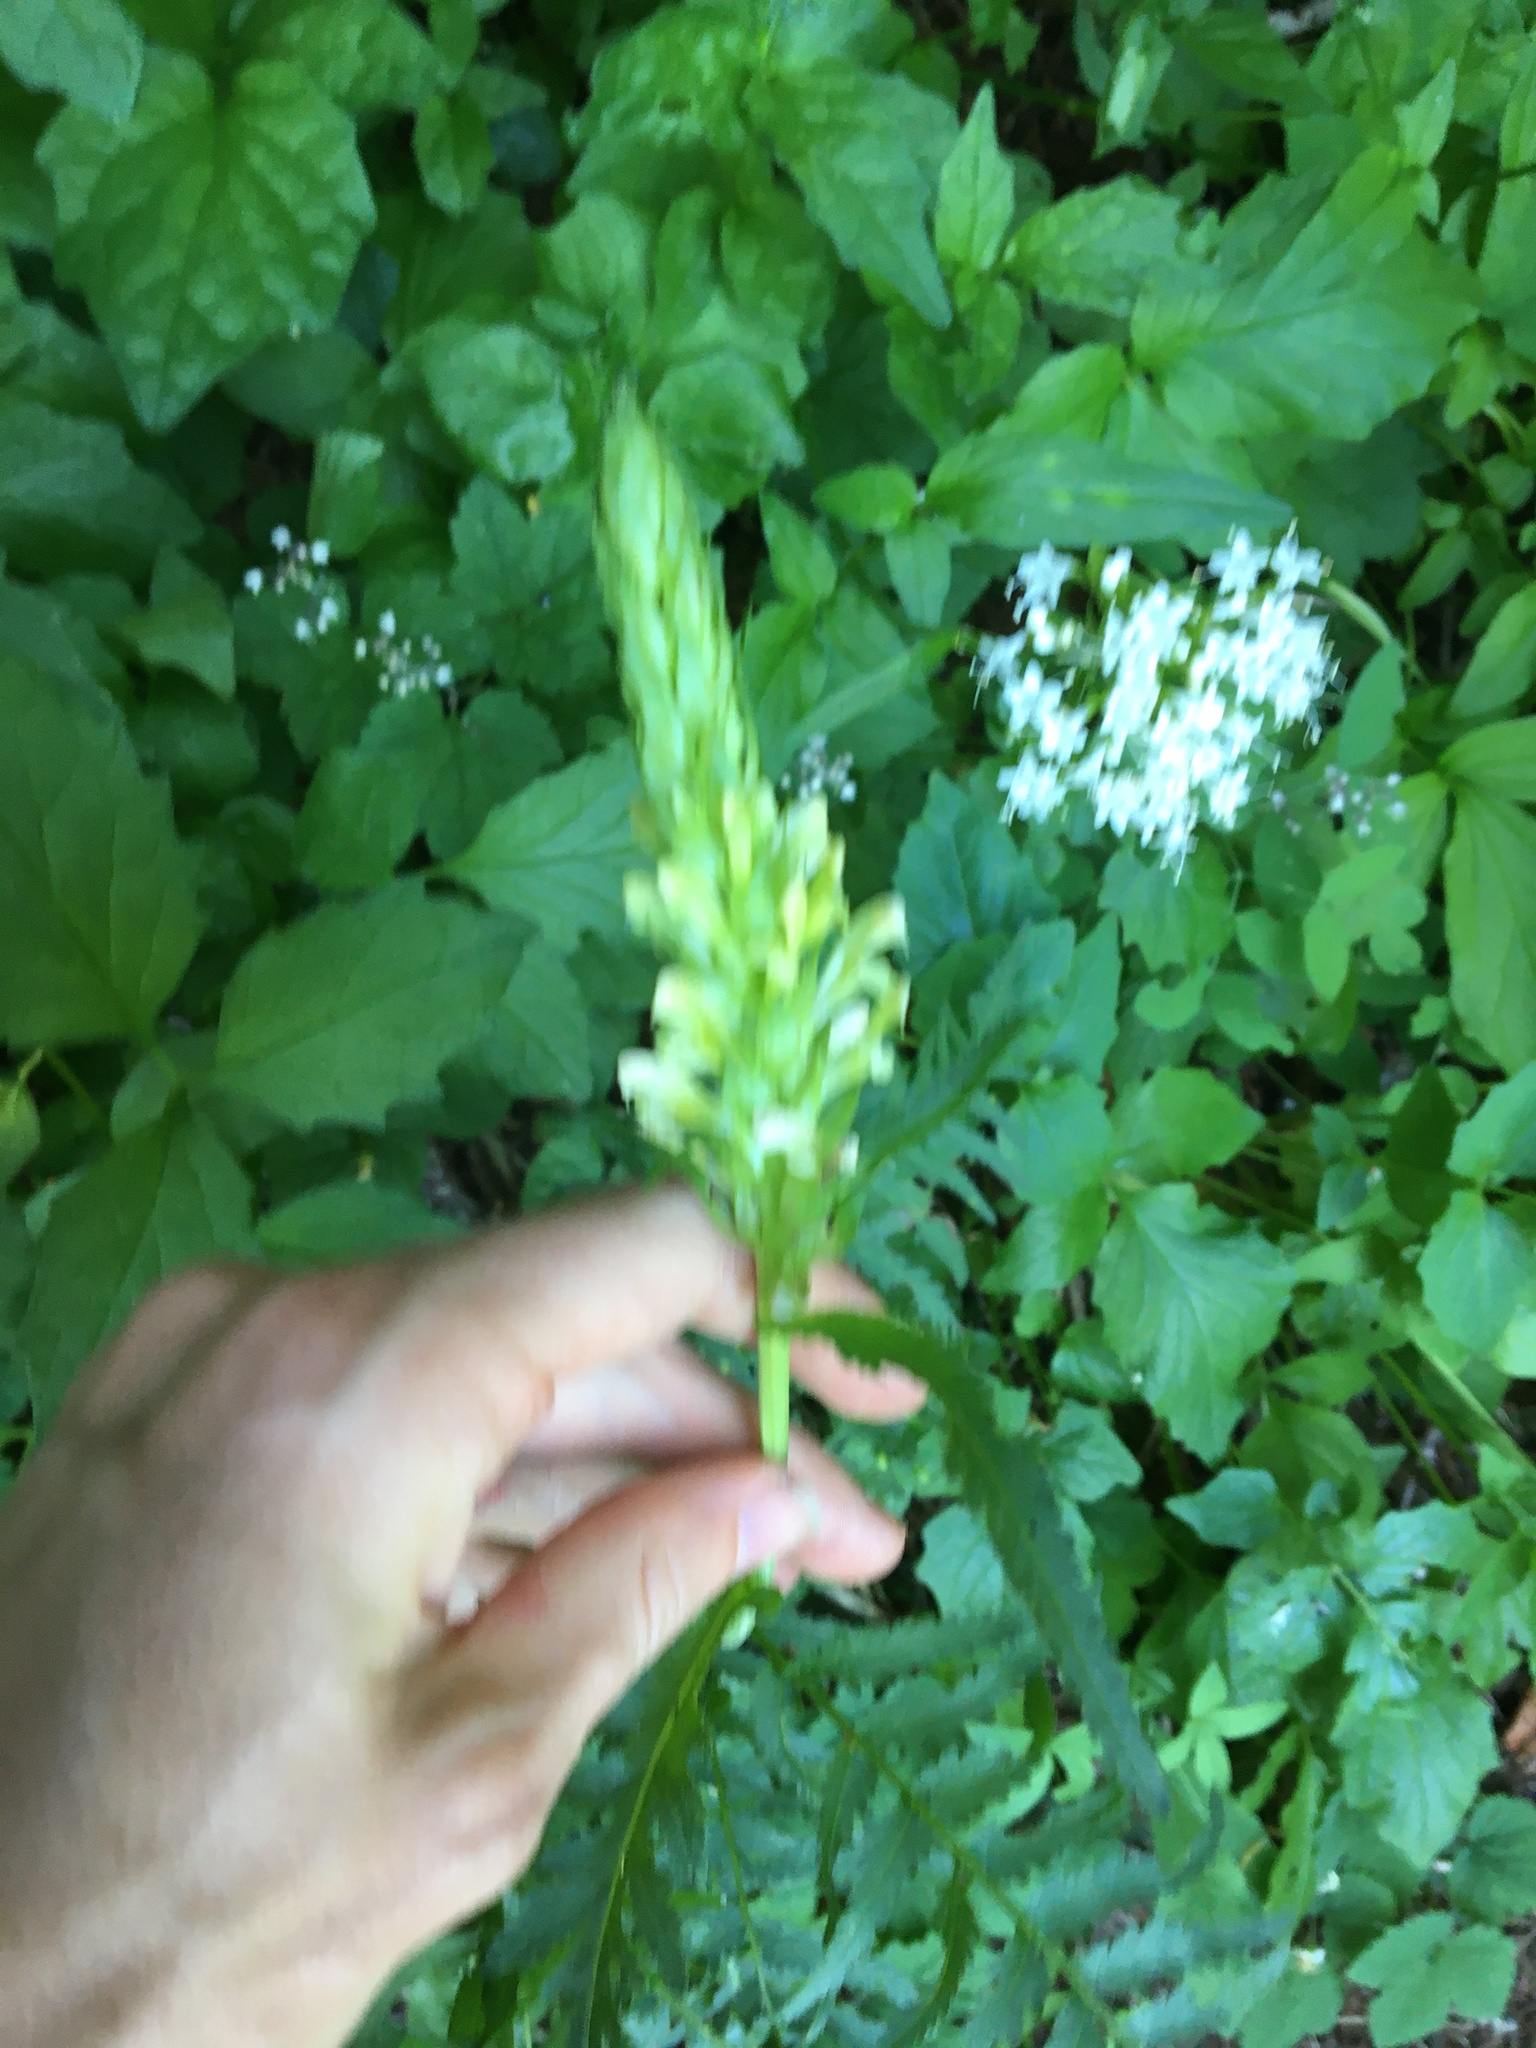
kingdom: Plantae
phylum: Tracheophyta
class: Magnoliopsida
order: Lamiales
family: Orobanchaceae
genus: Pedicularis
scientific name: Pedicularis bracteosa
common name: Bracted lousewort
